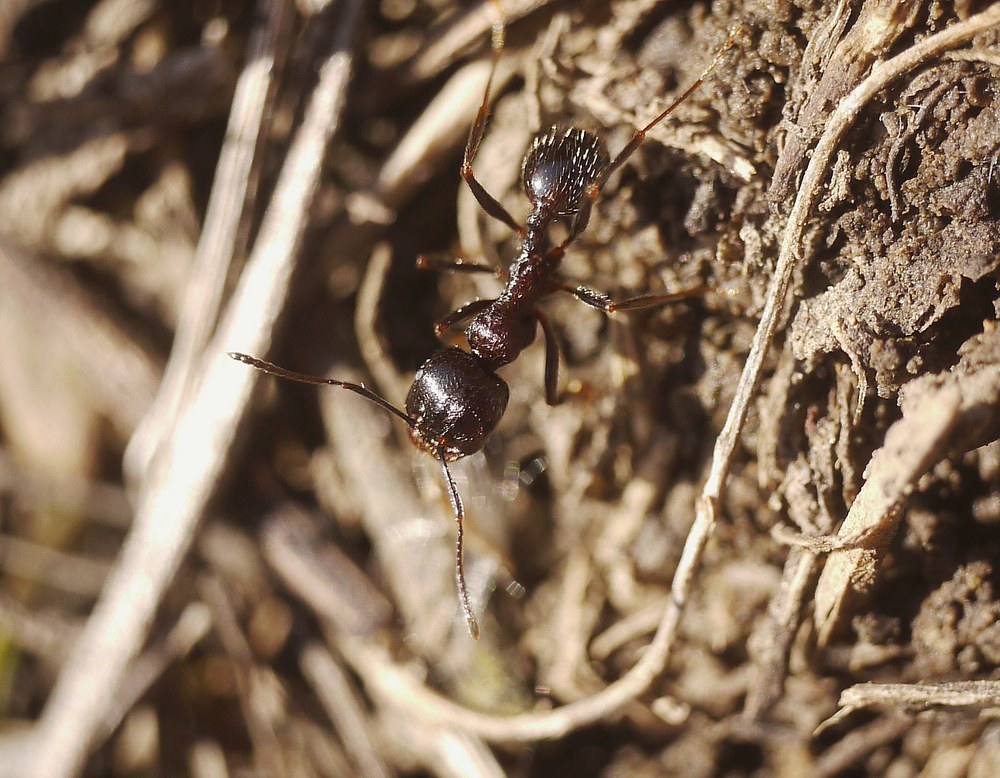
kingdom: Animalia
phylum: Arthropoda
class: Insecta
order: Hymenoptera
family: Formicidae
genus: Messor
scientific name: Messor structor
